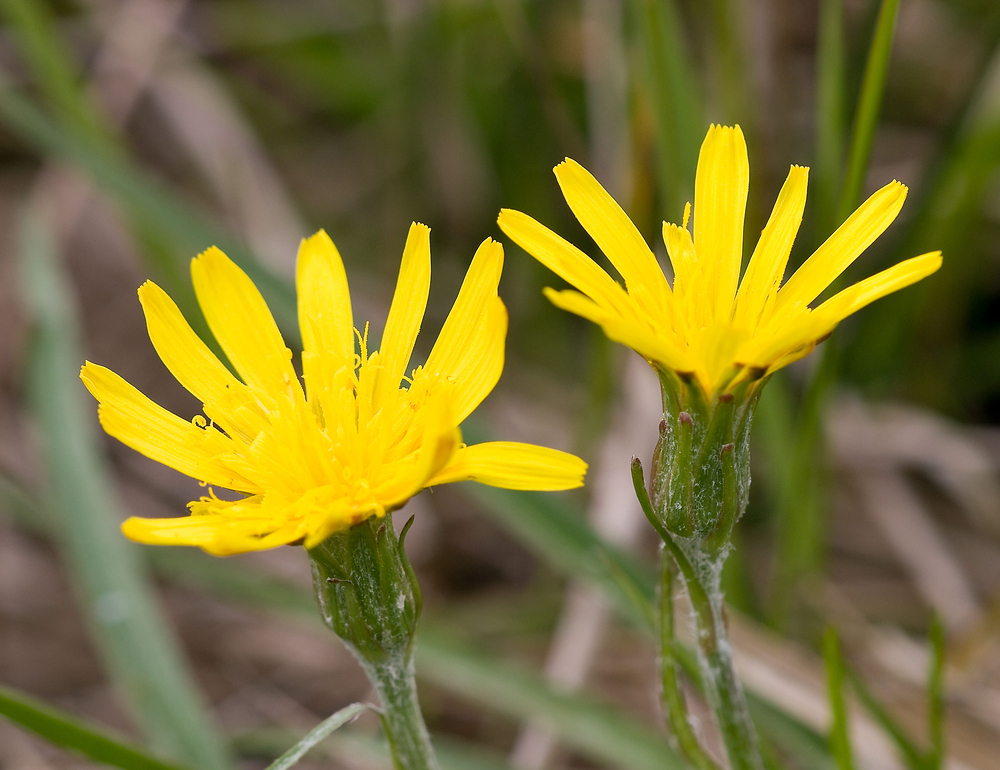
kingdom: Plantae
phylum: Tracheophyta
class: Magnoliopsida
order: Asterales
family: Asteraceae
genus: Scorzonera
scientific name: Scorzonera humilis
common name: Viper's-grass
